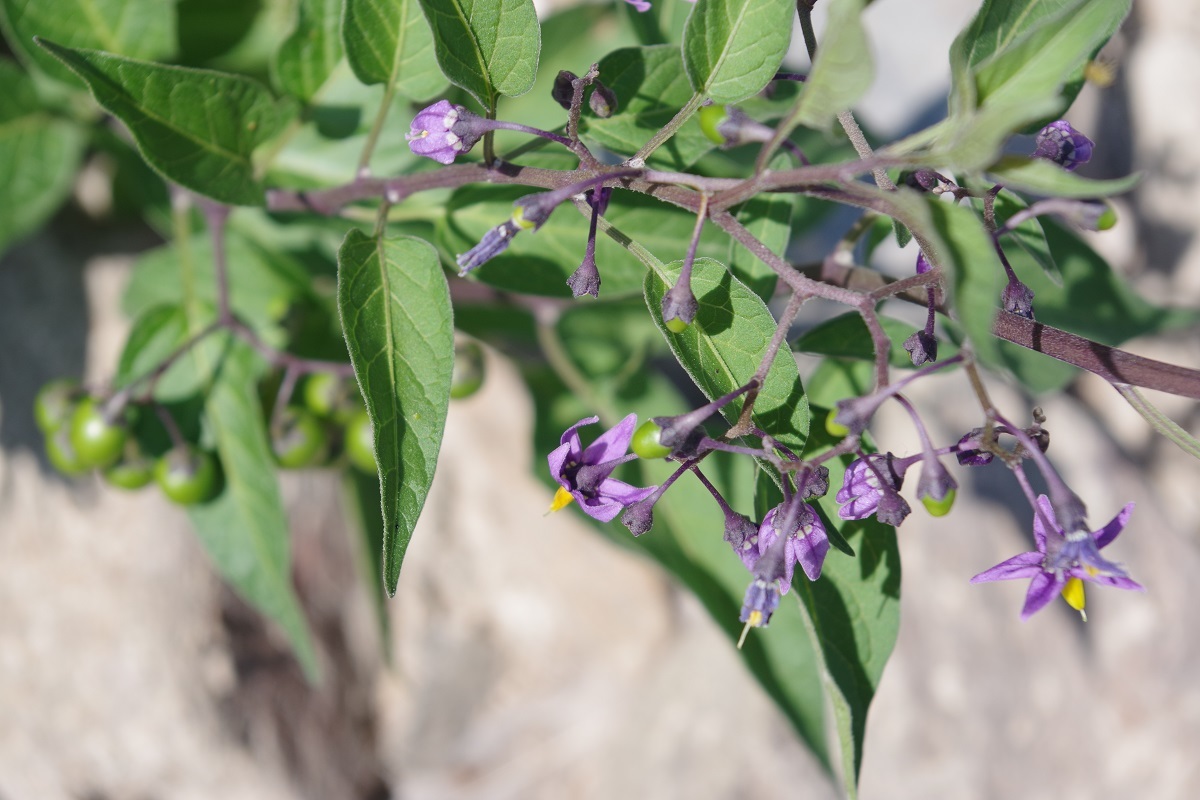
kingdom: Plantae
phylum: Tracheophyta
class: Magnoliopsida
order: Solanales
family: Solanaceae
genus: Solanum
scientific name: Solanum dulcamara
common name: Climbing nightshade
